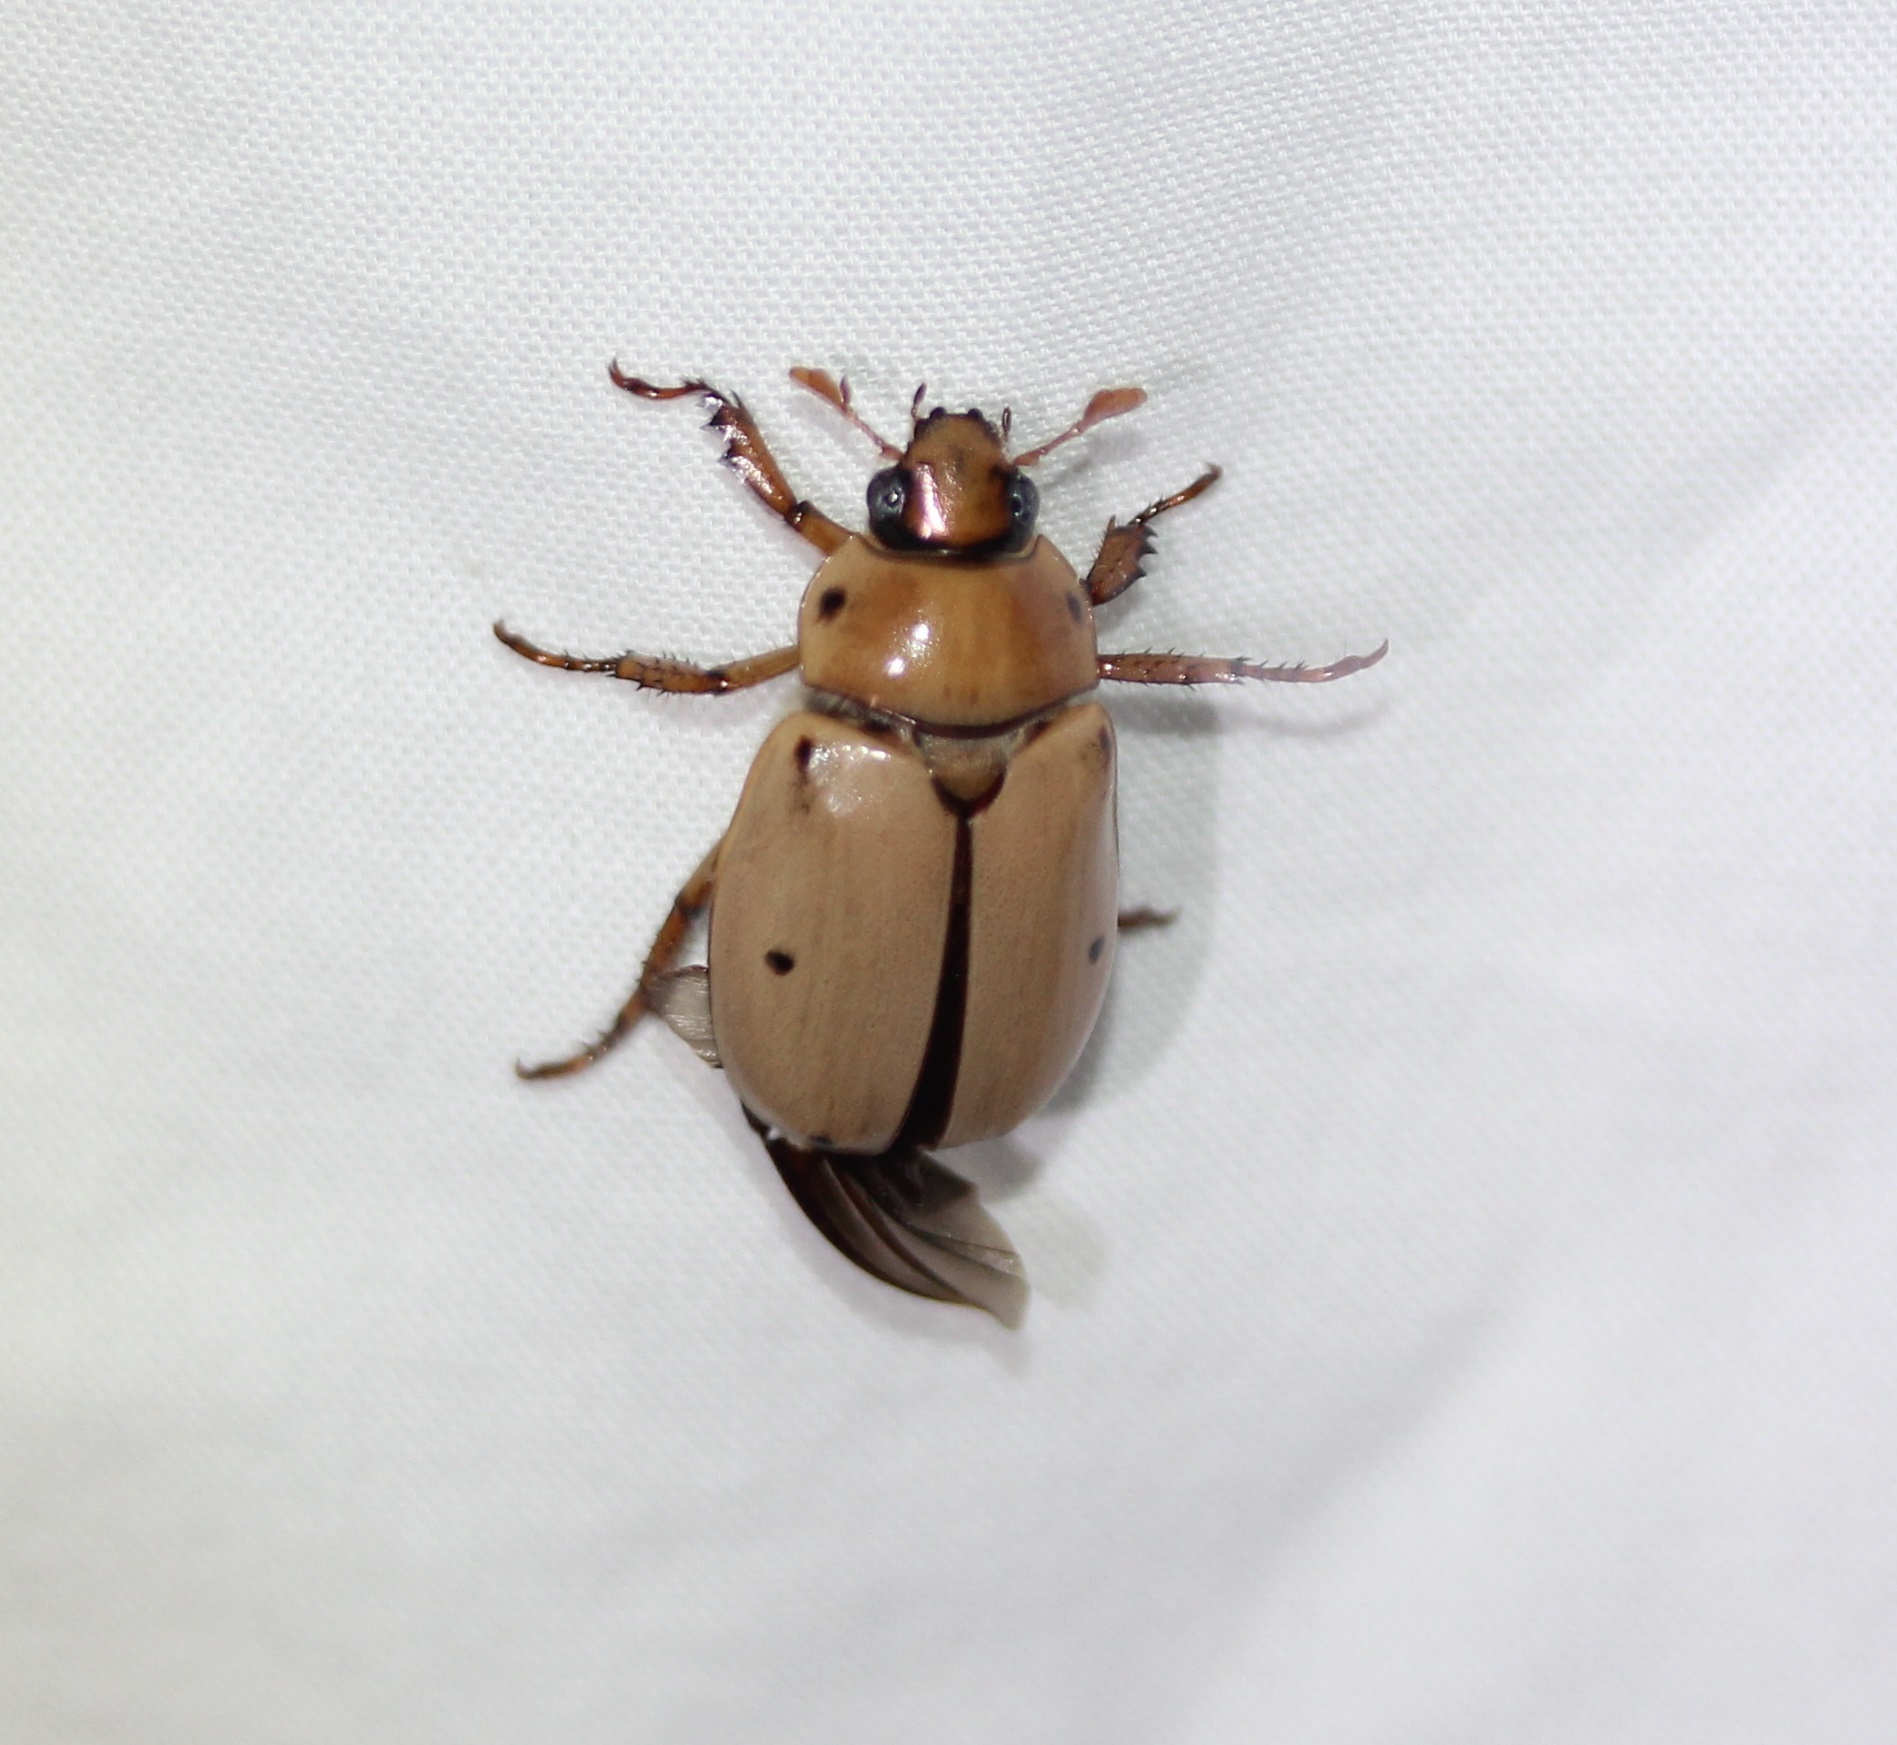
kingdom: Animalia
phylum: Arthropoda
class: Insecta
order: Coleoptera
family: Scarabaeidae
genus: Pelidnota
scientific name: Pelidnota punctata
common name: Grapevine beetle
